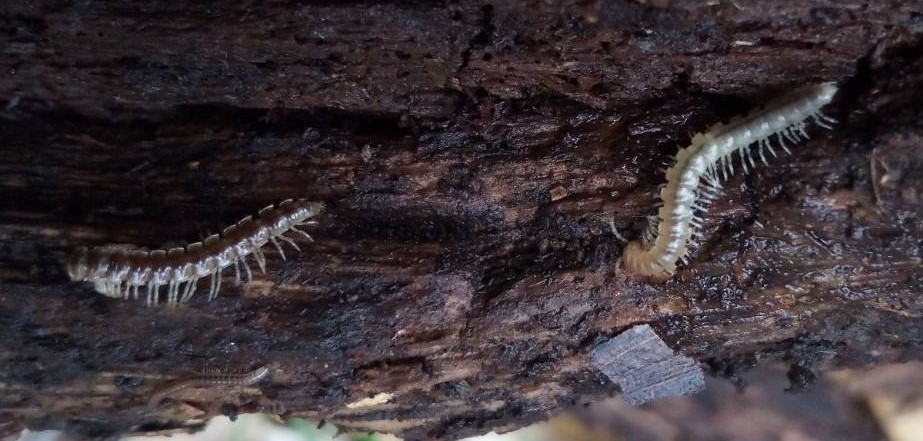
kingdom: Animalia
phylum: Arthropoda
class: Diplopoda
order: Polydesmida
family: Paradoxosomatidae
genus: Oxidus
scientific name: Oxidus gracilis
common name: Greenhouse millipede
